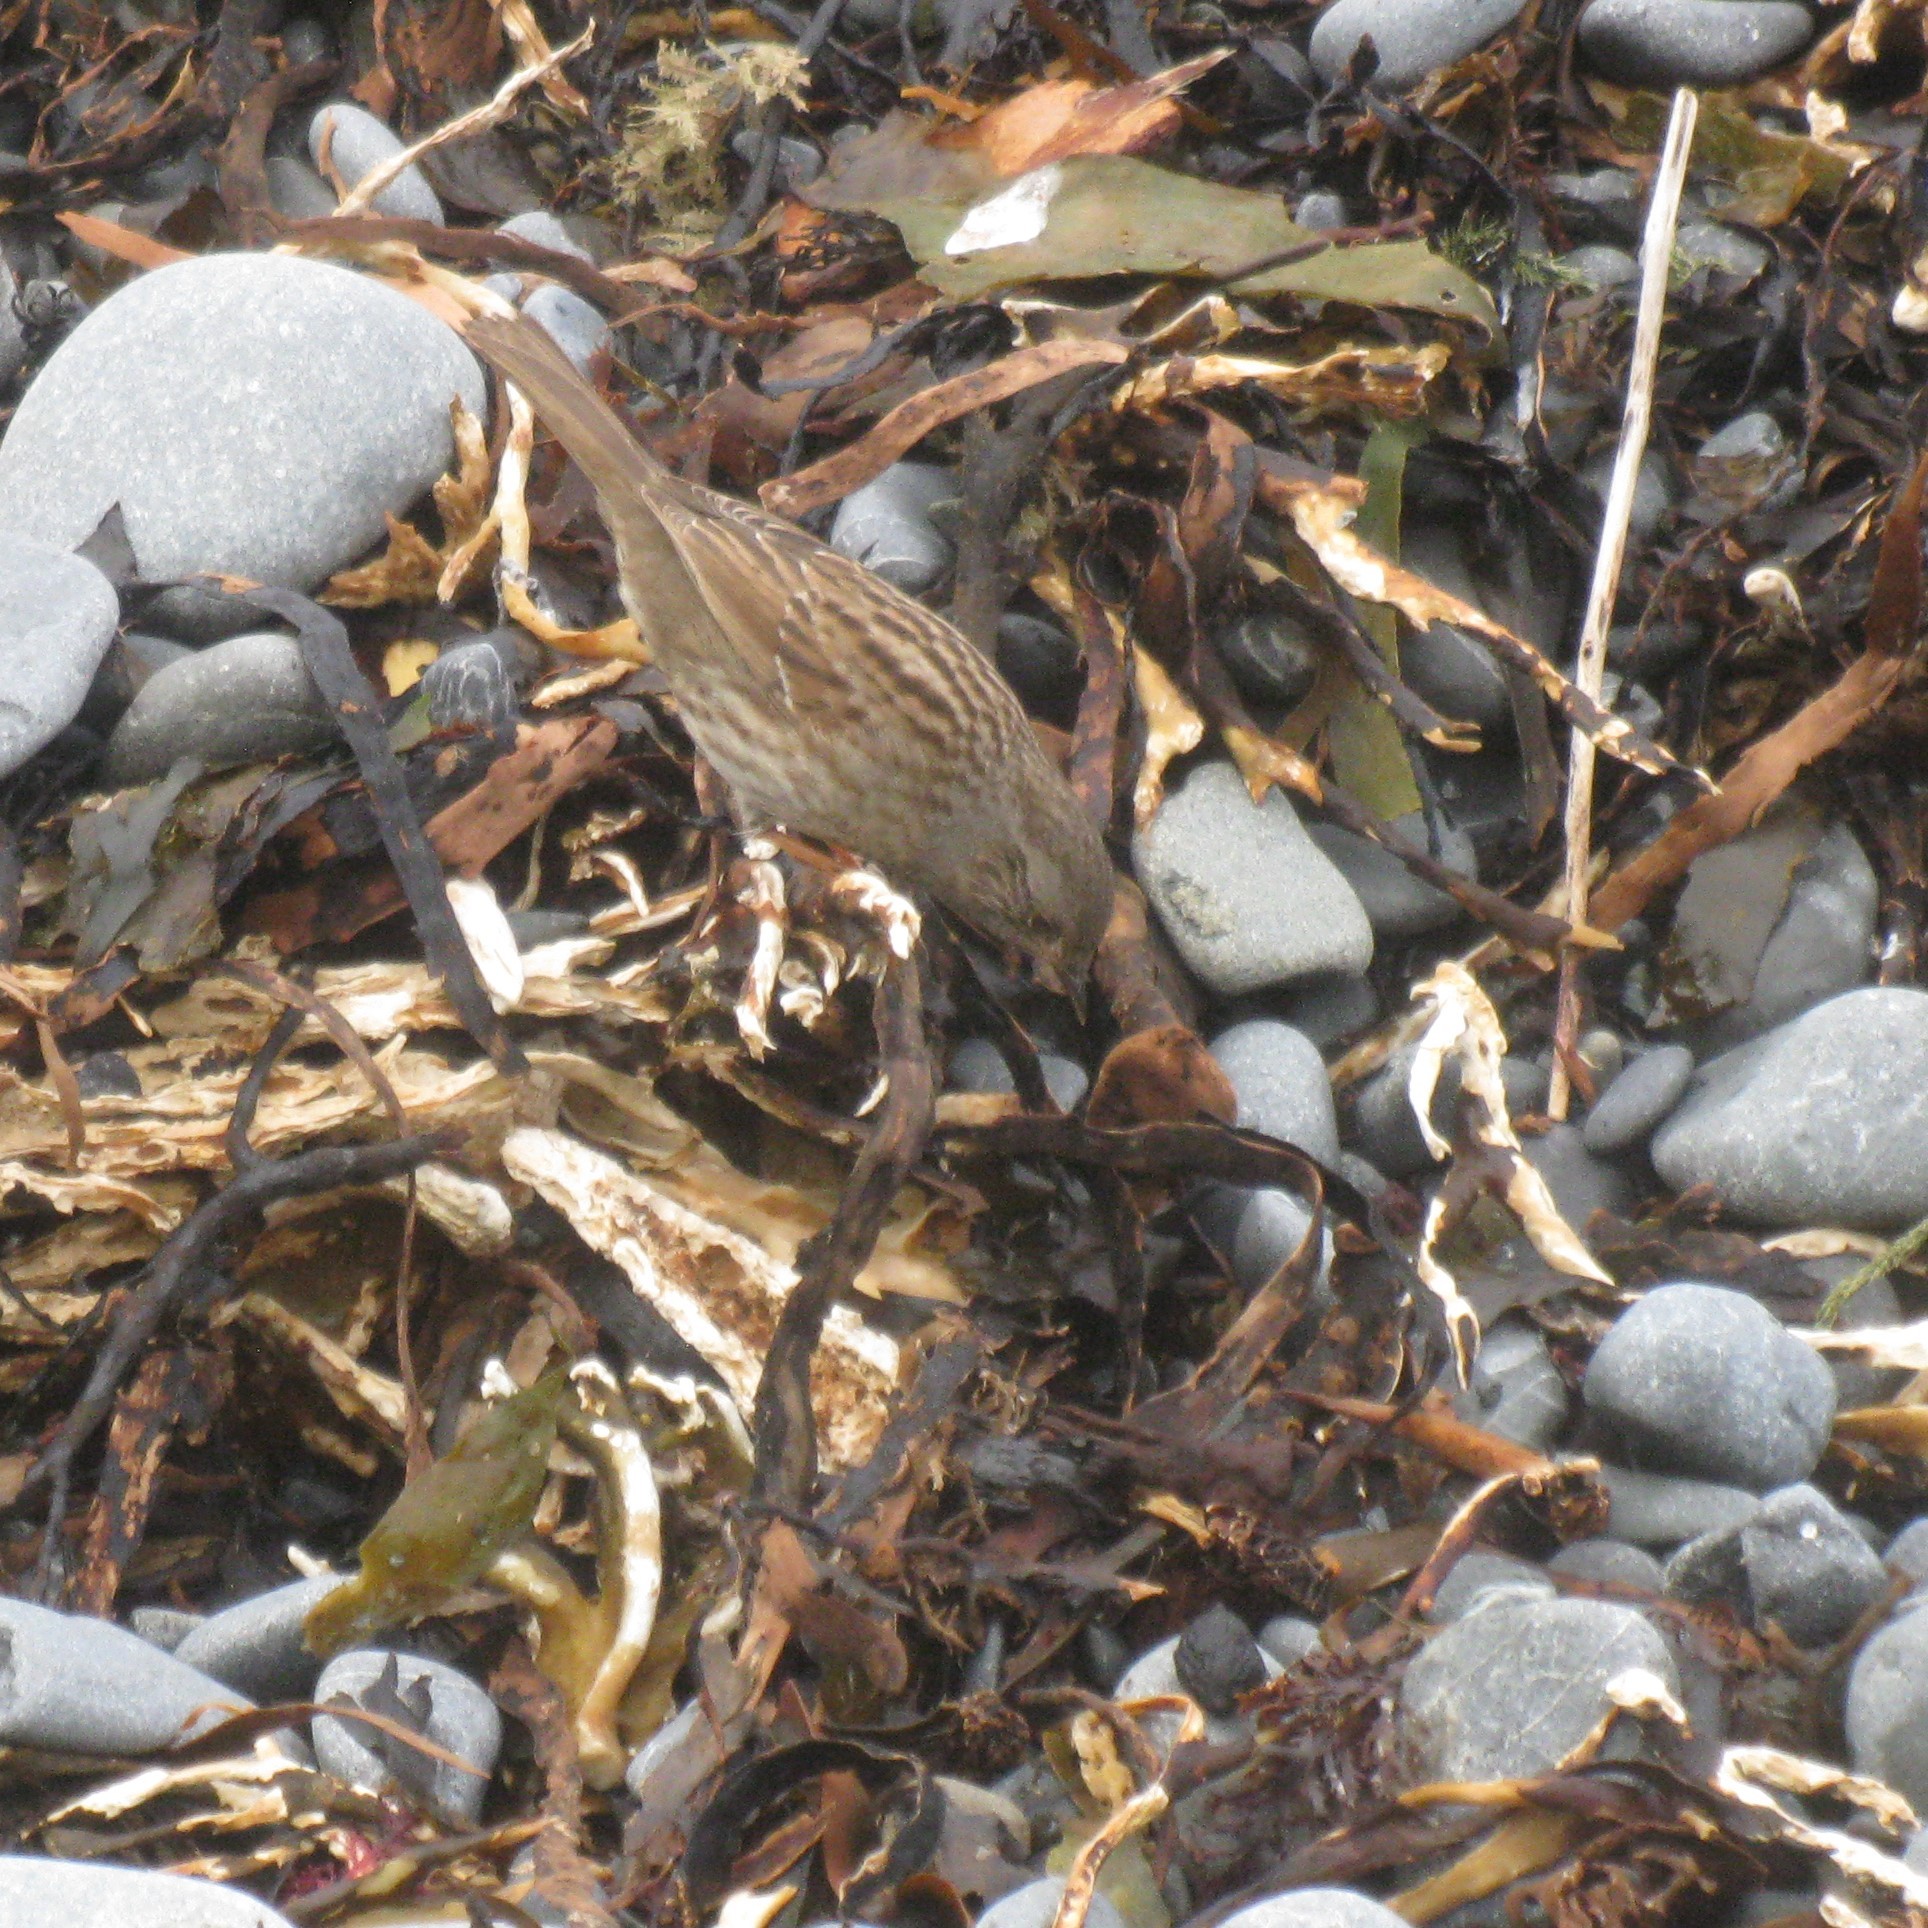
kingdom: Animalia
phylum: Chordata
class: Aves
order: Passeriformes
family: Prunellidae
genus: Prunella
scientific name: Prunella modularis
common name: Dunnock
